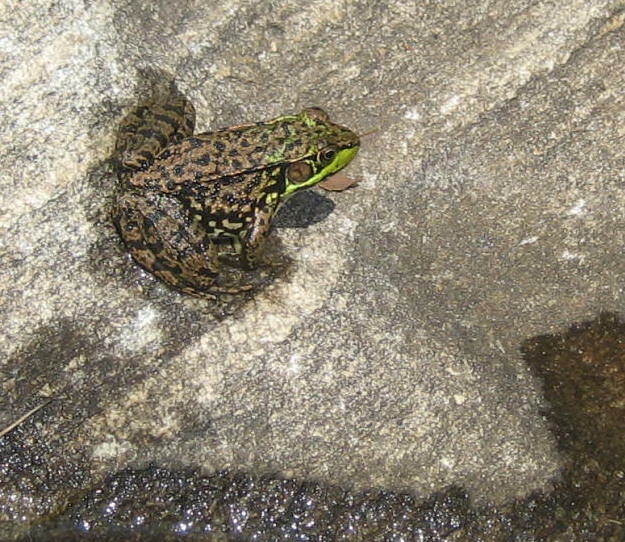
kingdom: Animalia
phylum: Chordata
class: Amphibia
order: Anura
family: Ranidae
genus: Lithobates
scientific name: Lithobates clamitans
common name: Green frog
